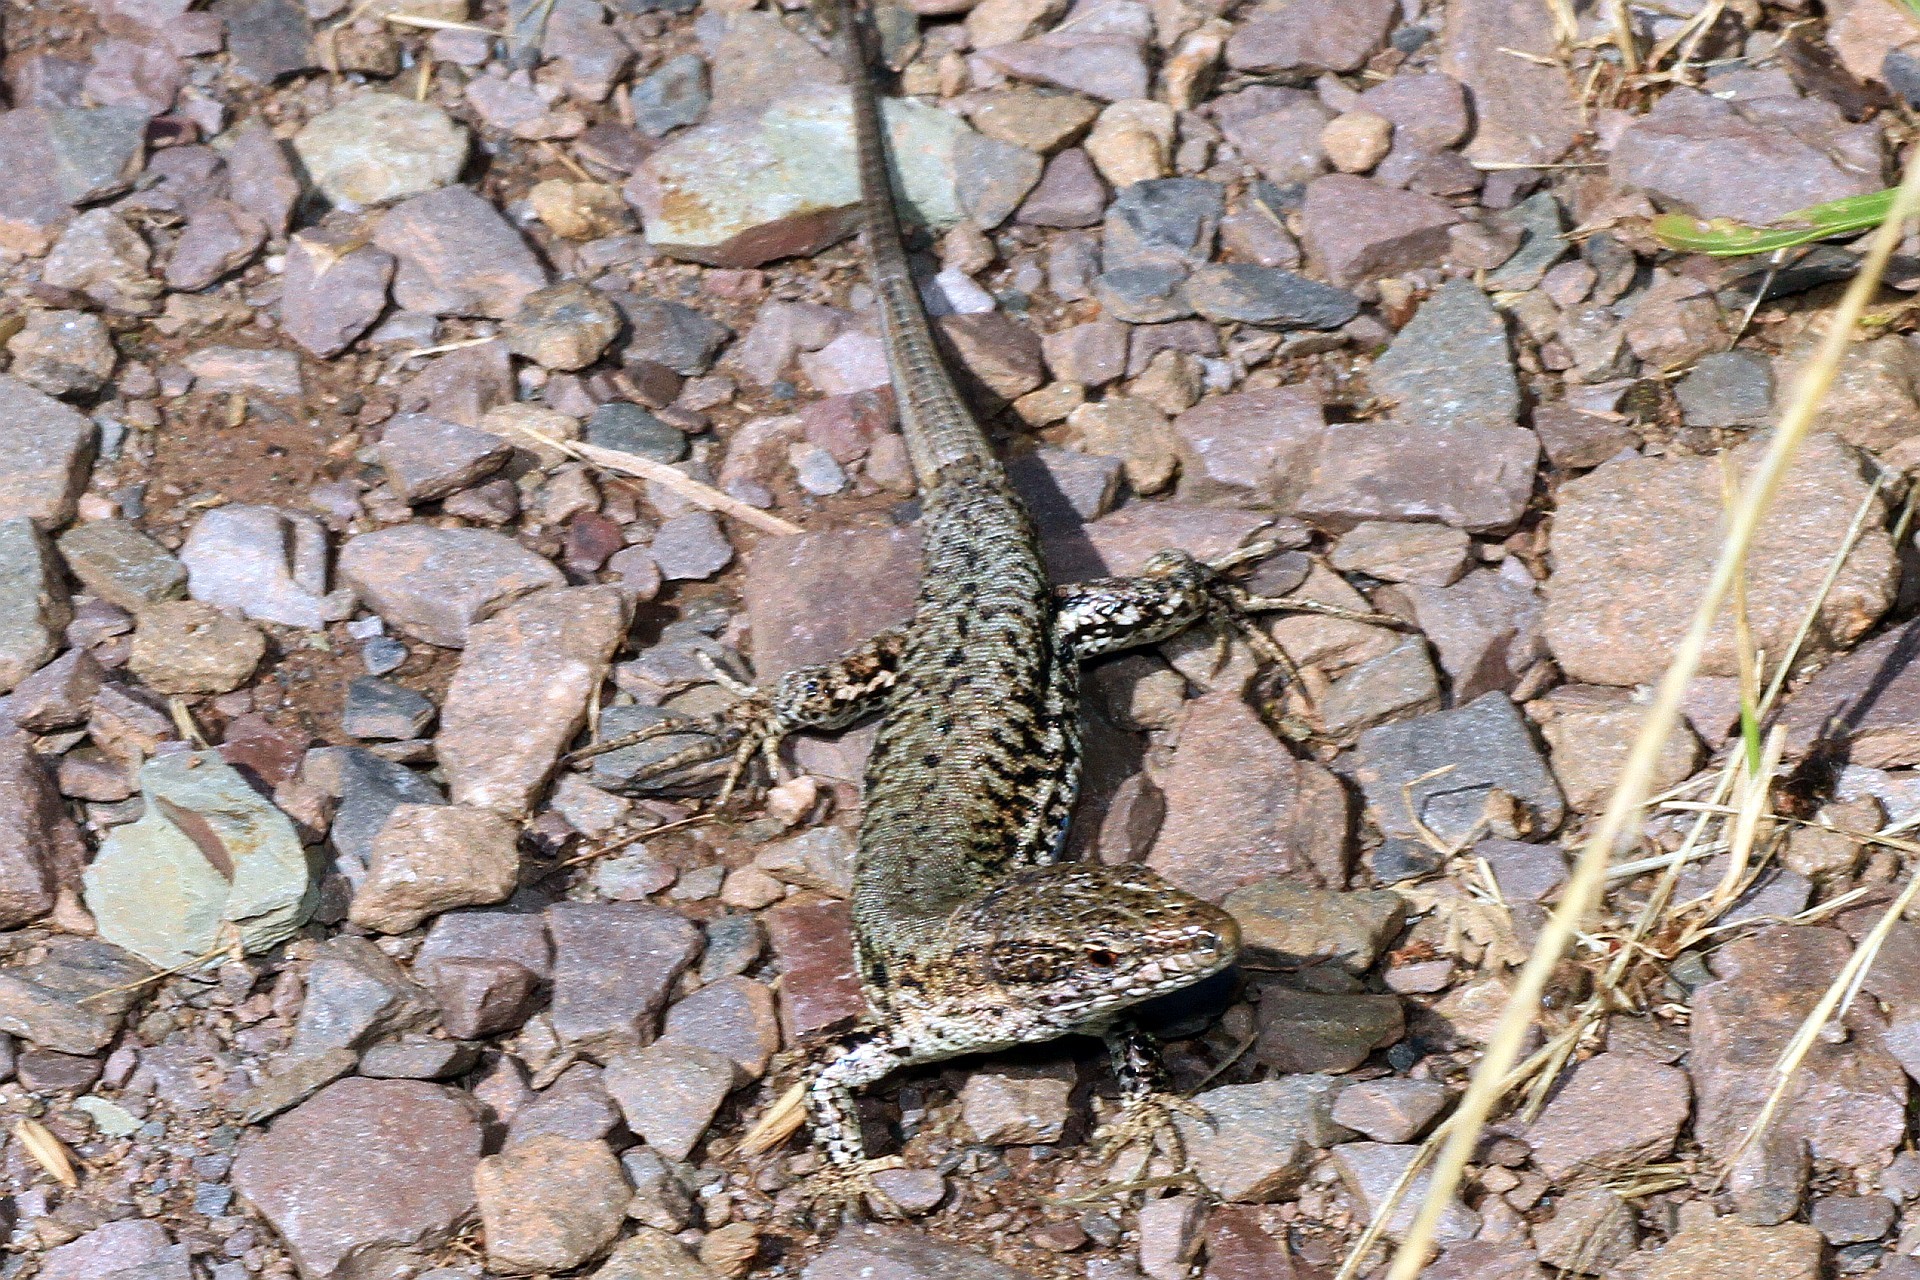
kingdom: Animalia
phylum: Chordata
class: Squamata
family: Lacertidae
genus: Podarcis
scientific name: Podarcis muralis
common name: Common wall lizard
